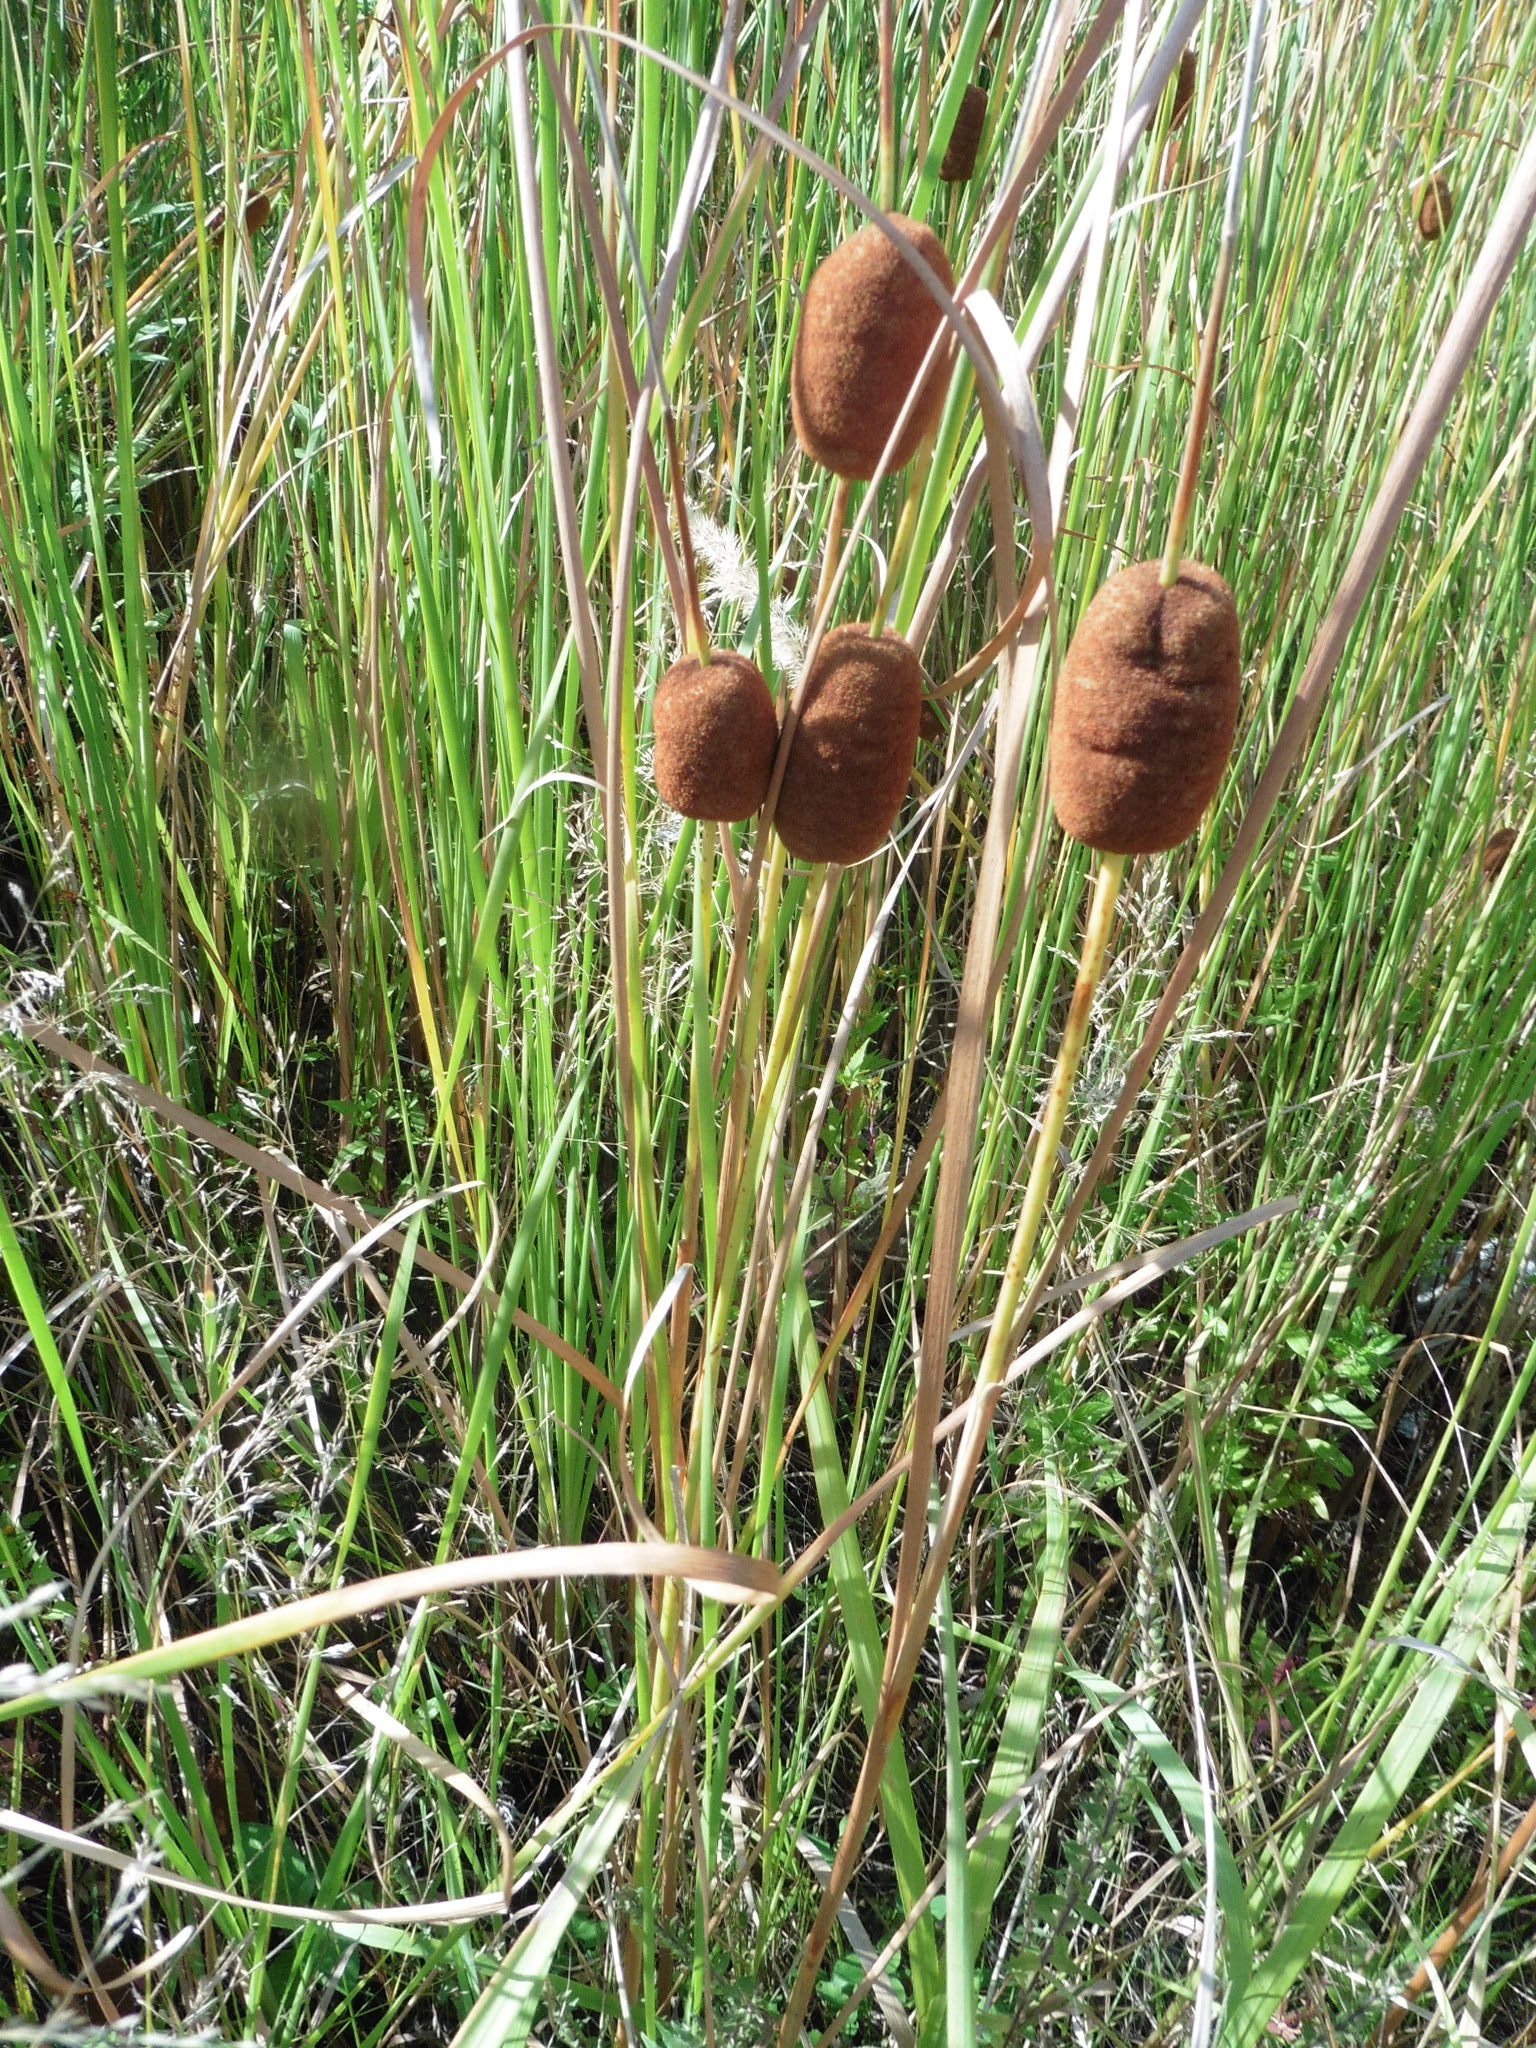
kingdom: Plantae
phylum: Tracheophyta
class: Liliopsida
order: Poales
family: Typhaceae
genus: Typha
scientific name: Typha laxmannii
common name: Laxman’s bulrush
